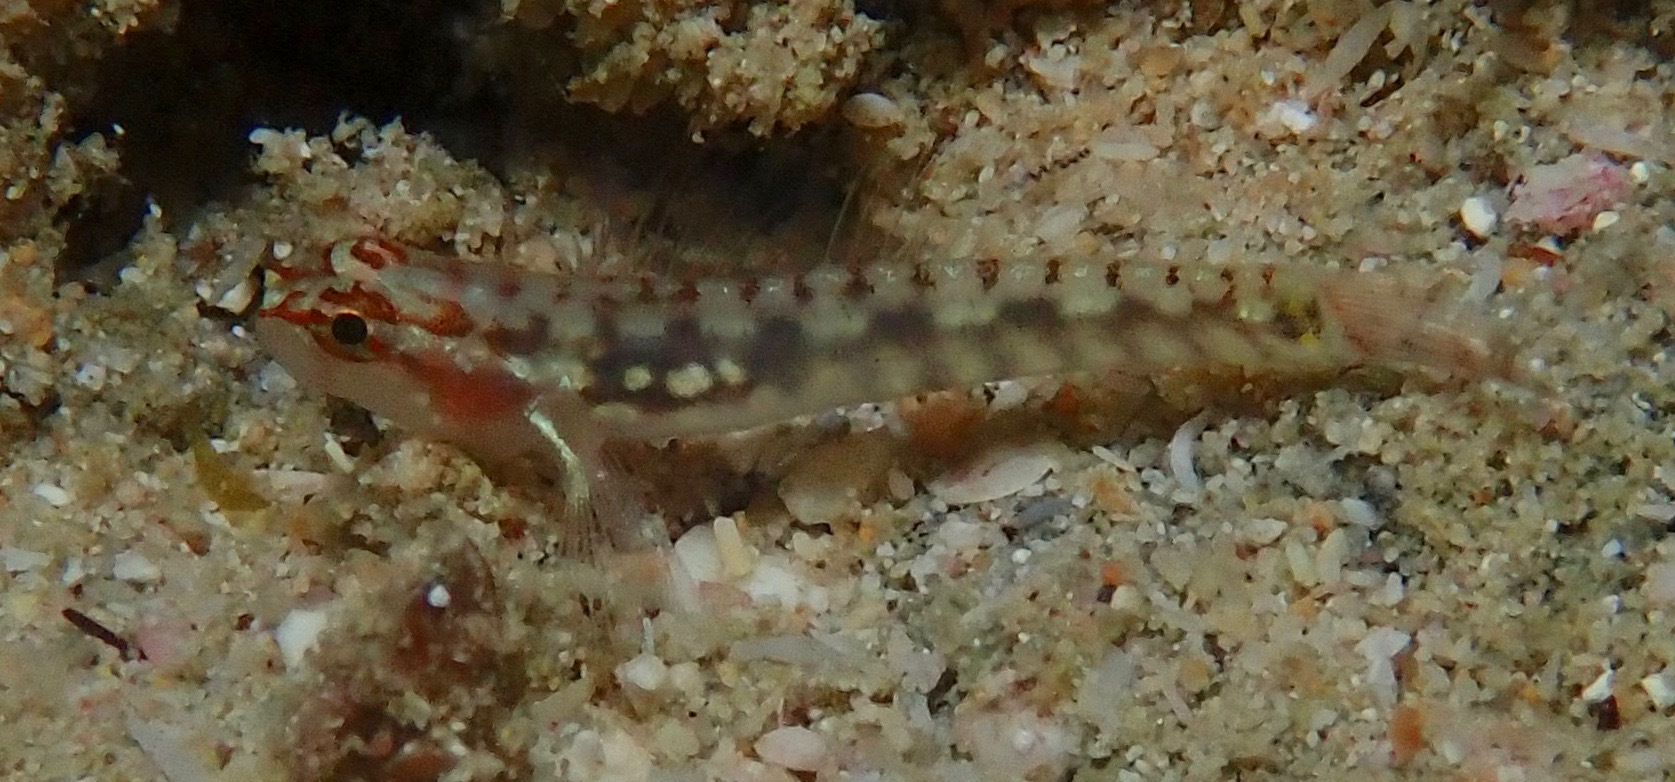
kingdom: Animalia
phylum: Chordata
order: Perciformes
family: Gobiidae
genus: Eviota
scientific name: Eviota longirostris
